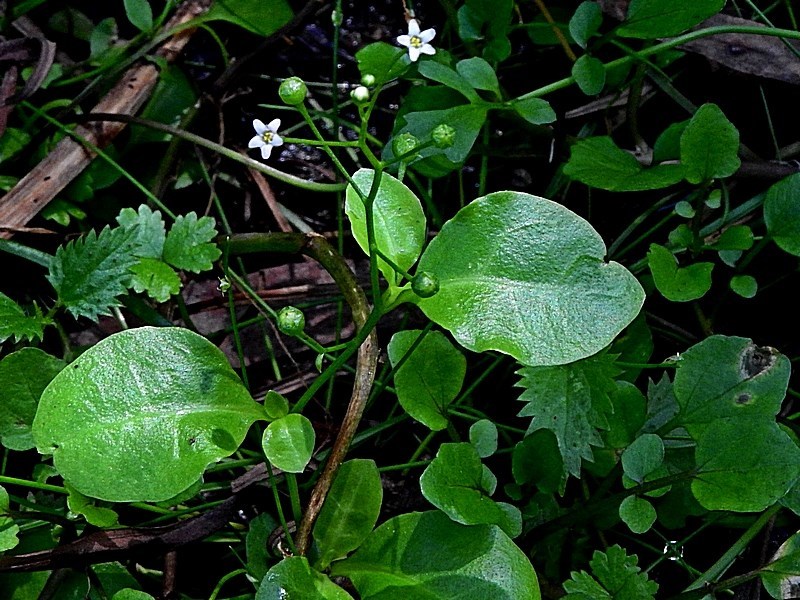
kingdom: Plantae
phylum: Tracheophyta
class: Magnoliopsida
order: Ericales
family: Primulaceae
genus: Samolus
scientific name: Samolus valerandi
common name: Brookweed
